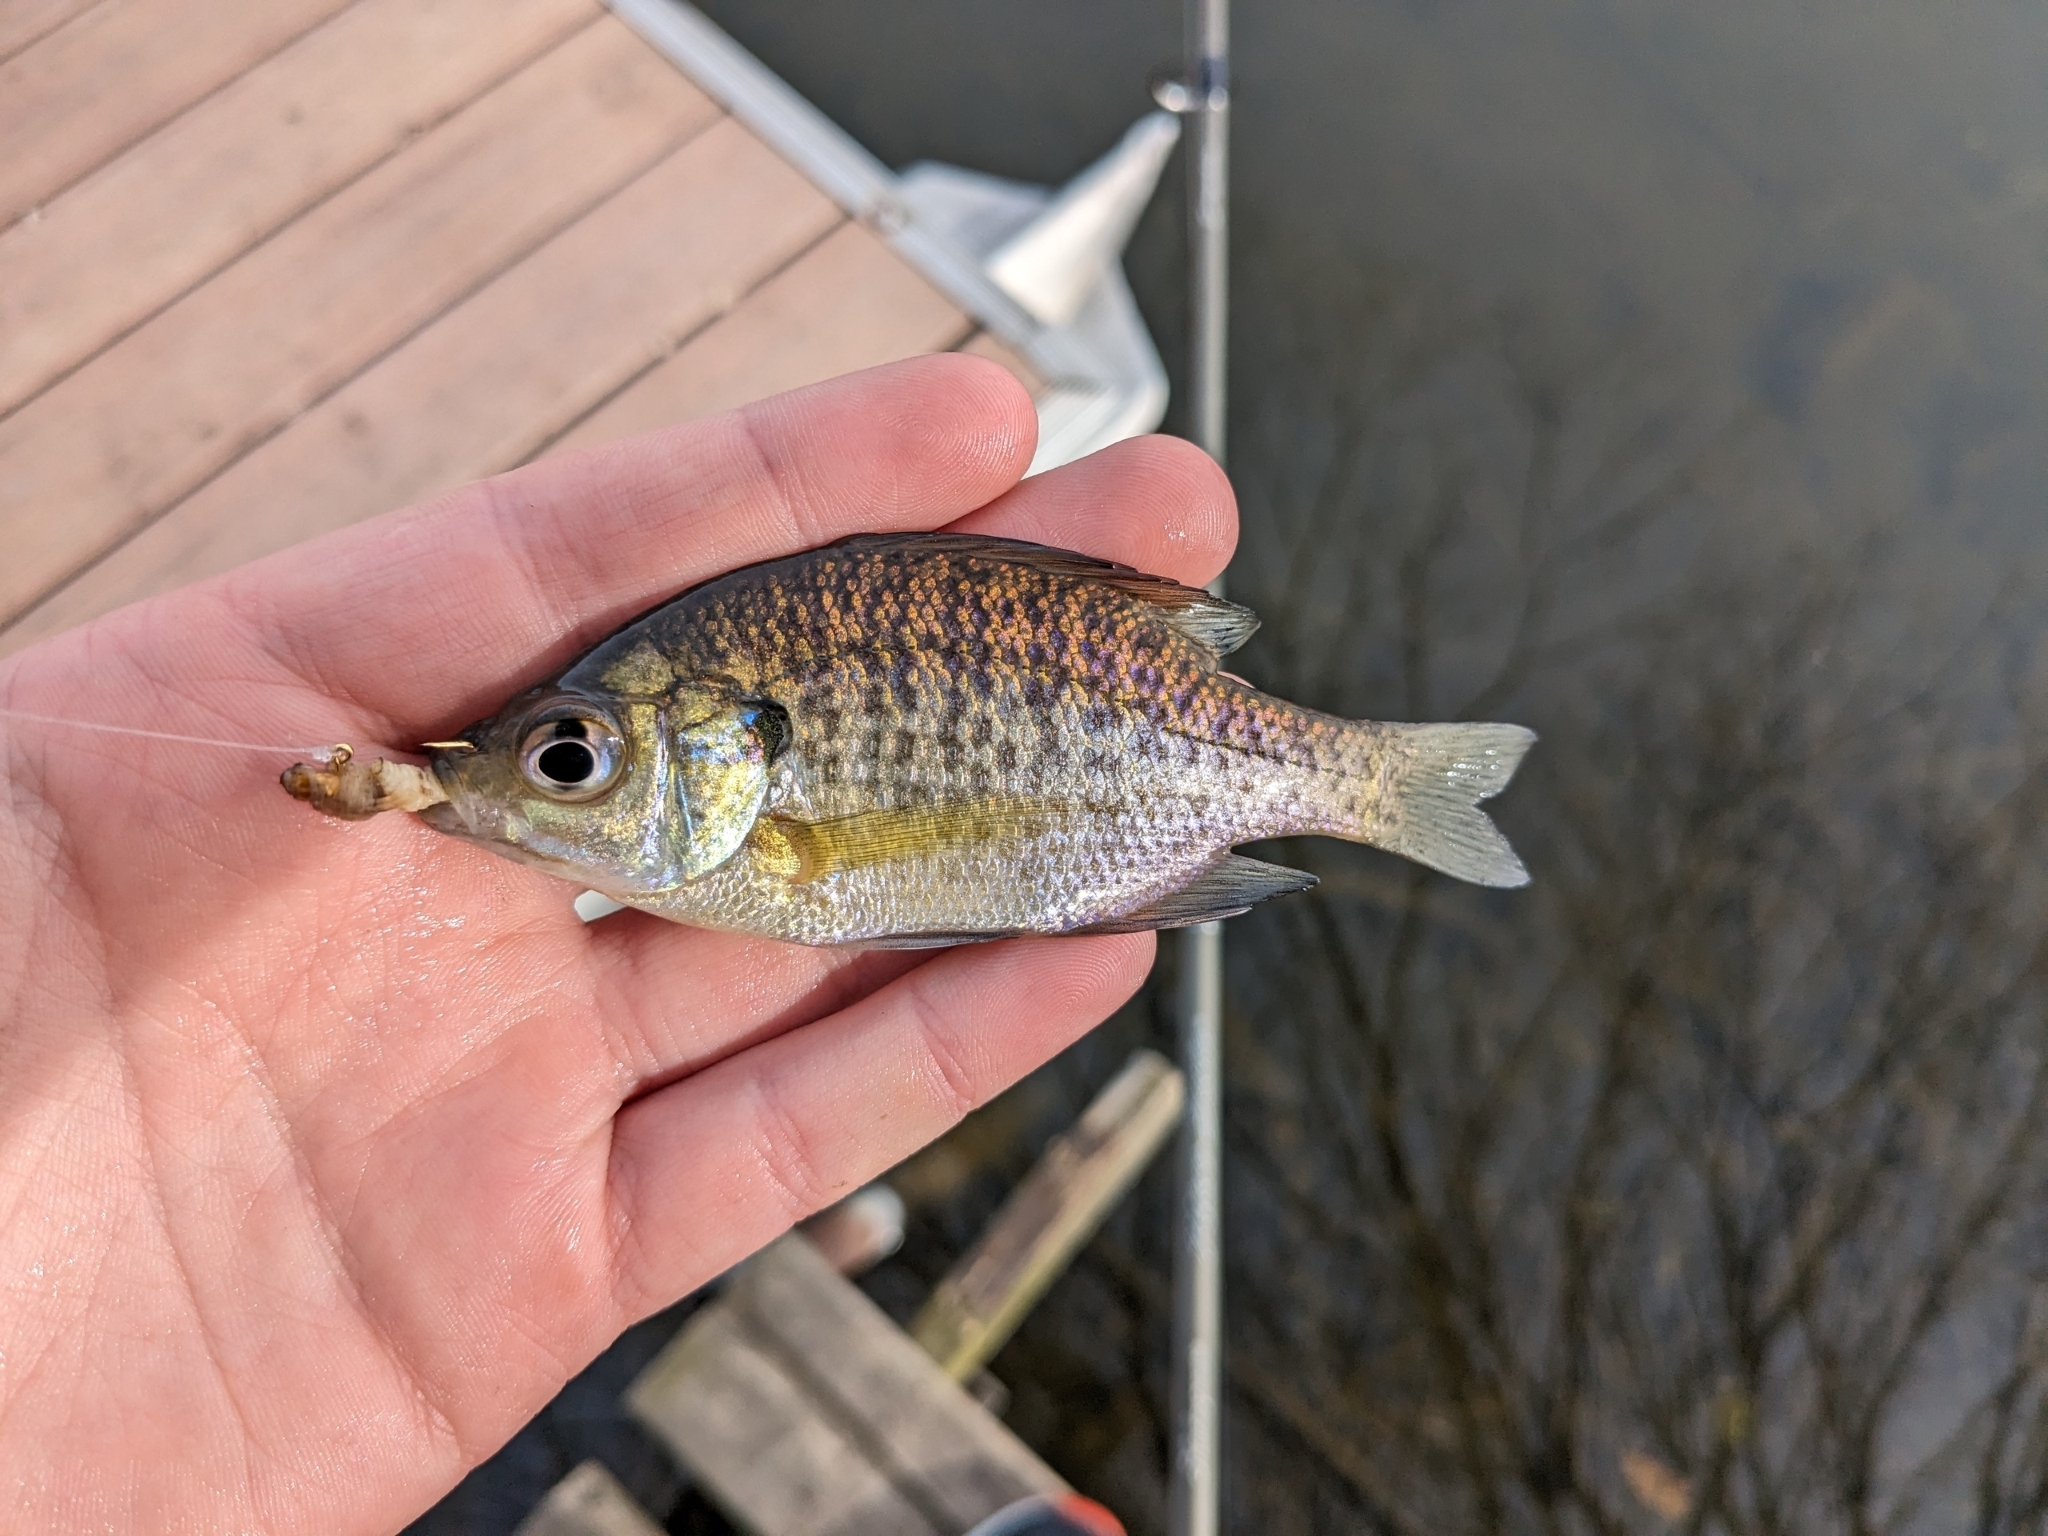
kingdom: Animalia
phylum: Chordata
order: Perciformes
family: Centrarchidae
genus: Lepomis
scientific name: Lepomis macrochirus
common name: Bluegill
